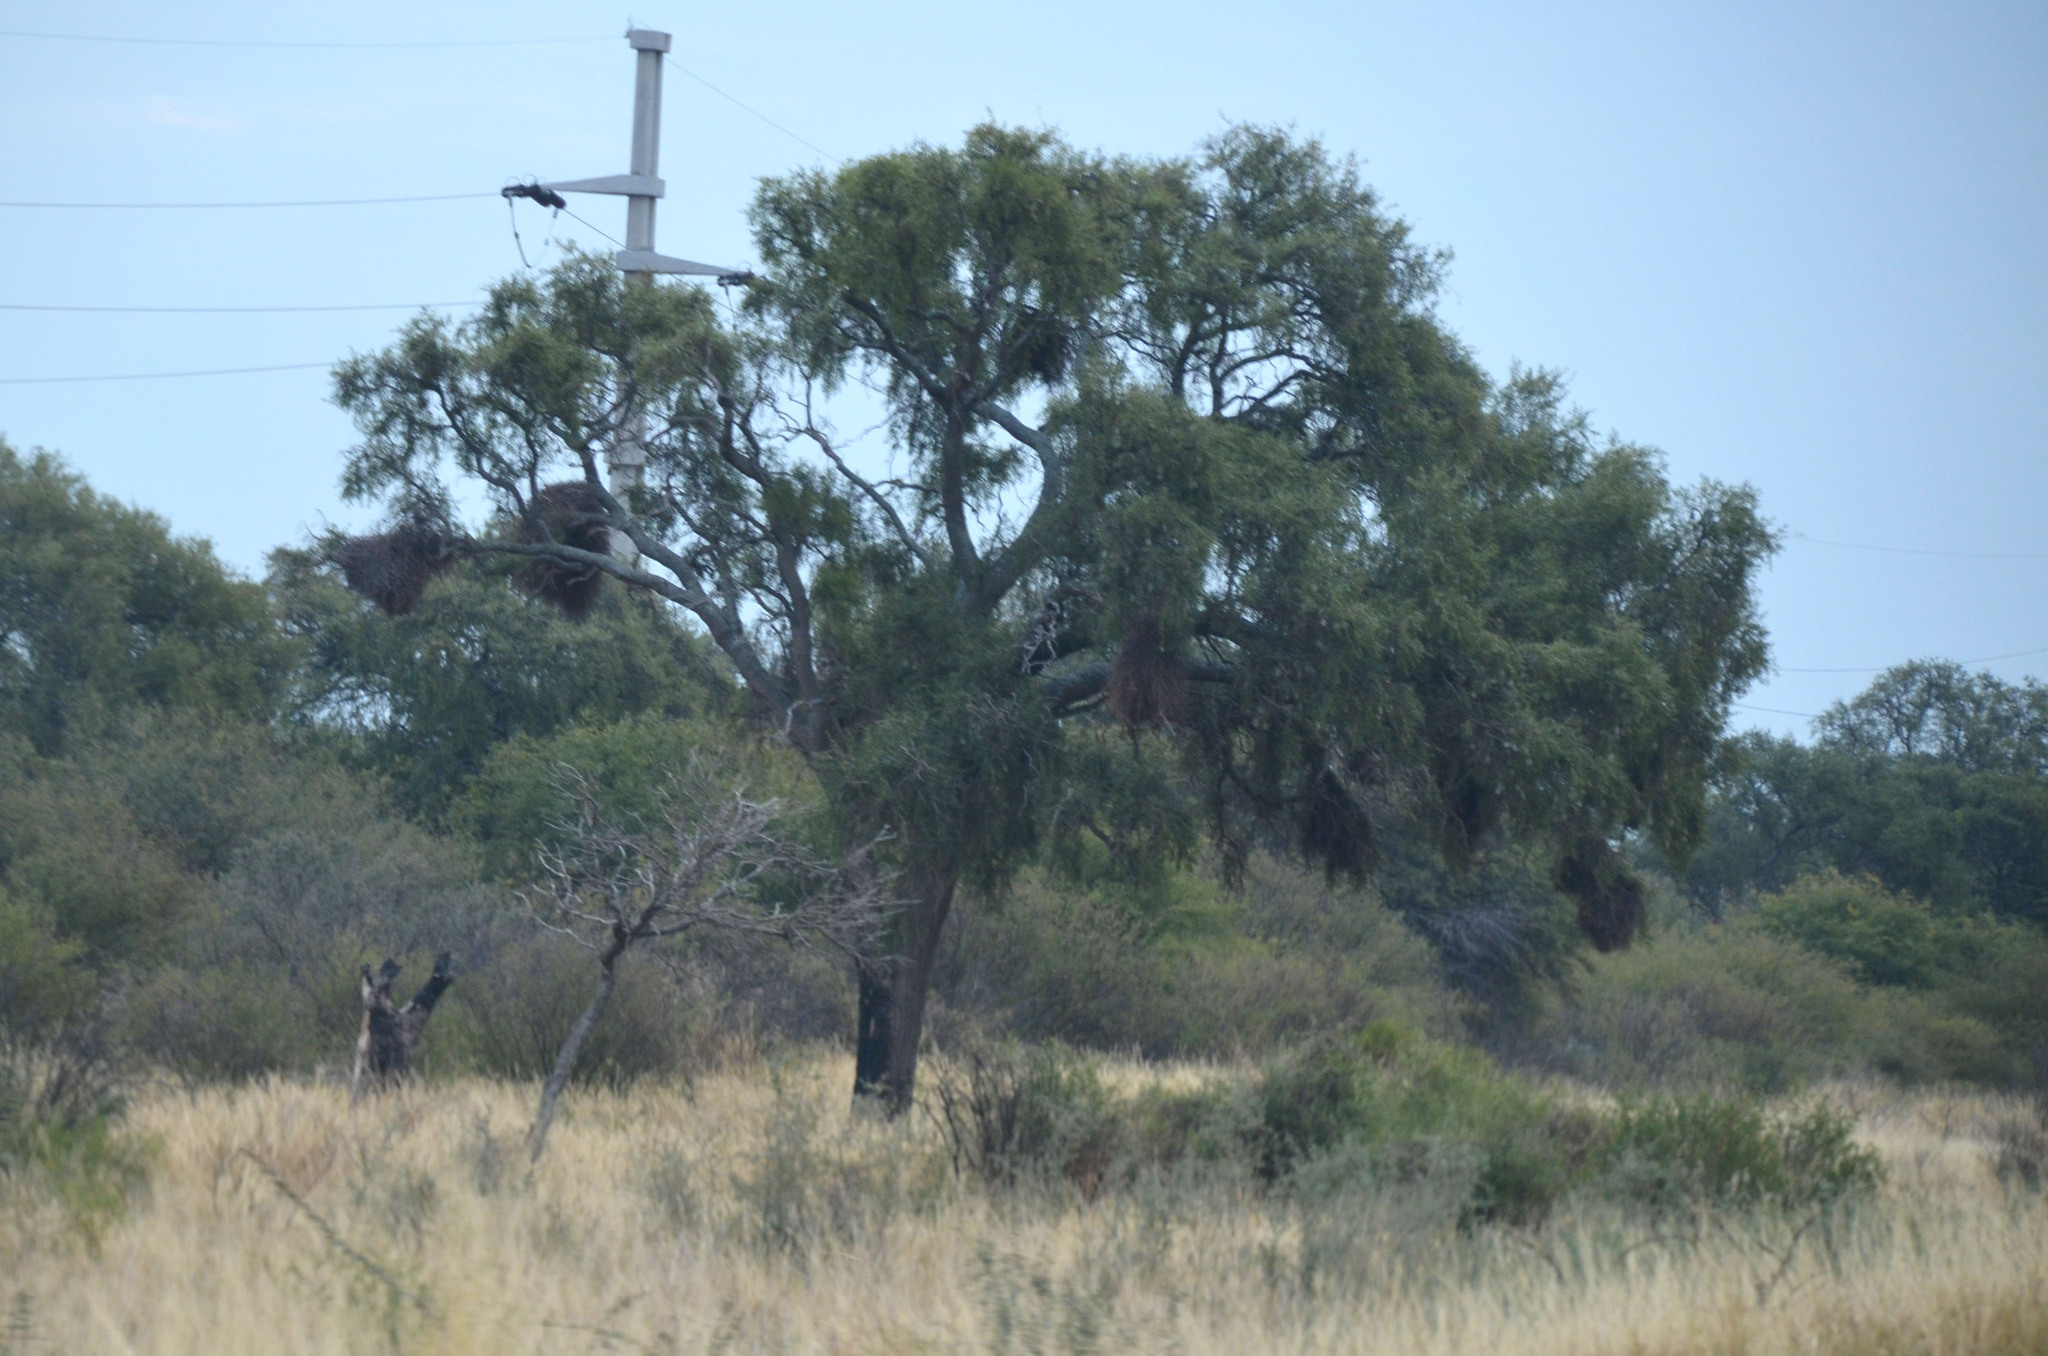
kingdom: Animalia
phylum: Chordata
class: Aves
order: Psittaciformes
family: Psittacidae
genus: Myiopsitta
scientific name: Myiopsitta monachus
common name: Monk parakeet
